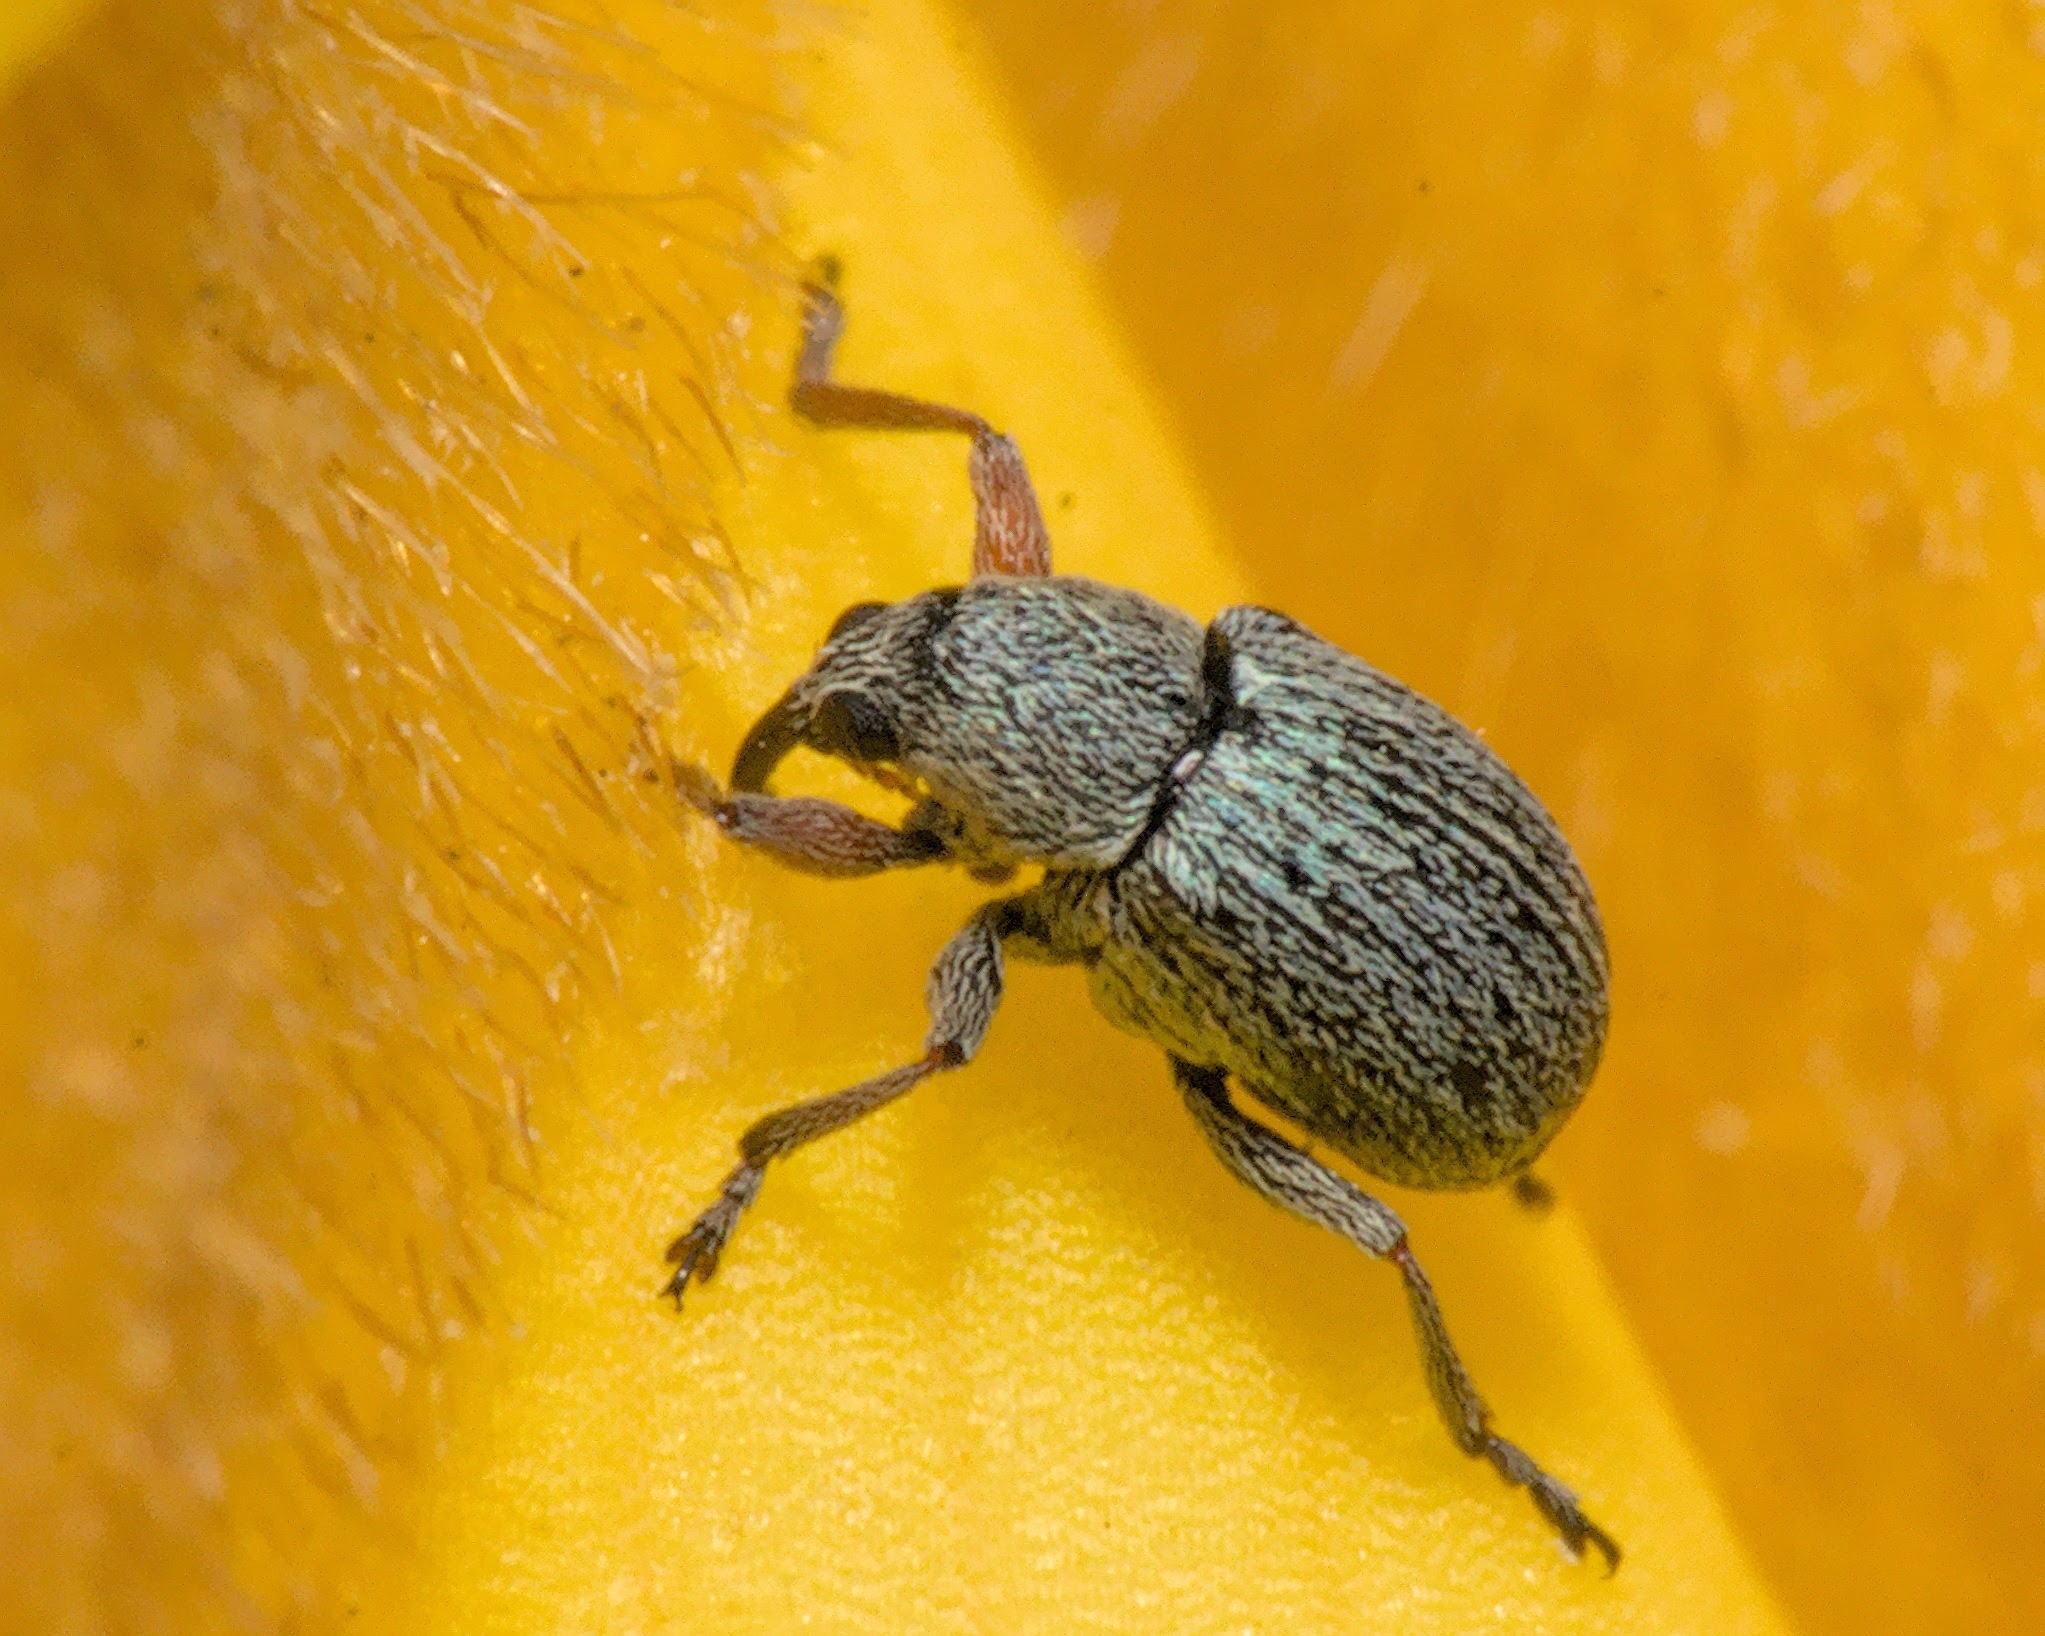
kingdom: Animalia
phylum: Arthropoda
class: Insecta
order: Coleoptera
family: Brentidae
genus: Exapion
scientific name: Exapion ulicis
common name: Gorse seed weevil
